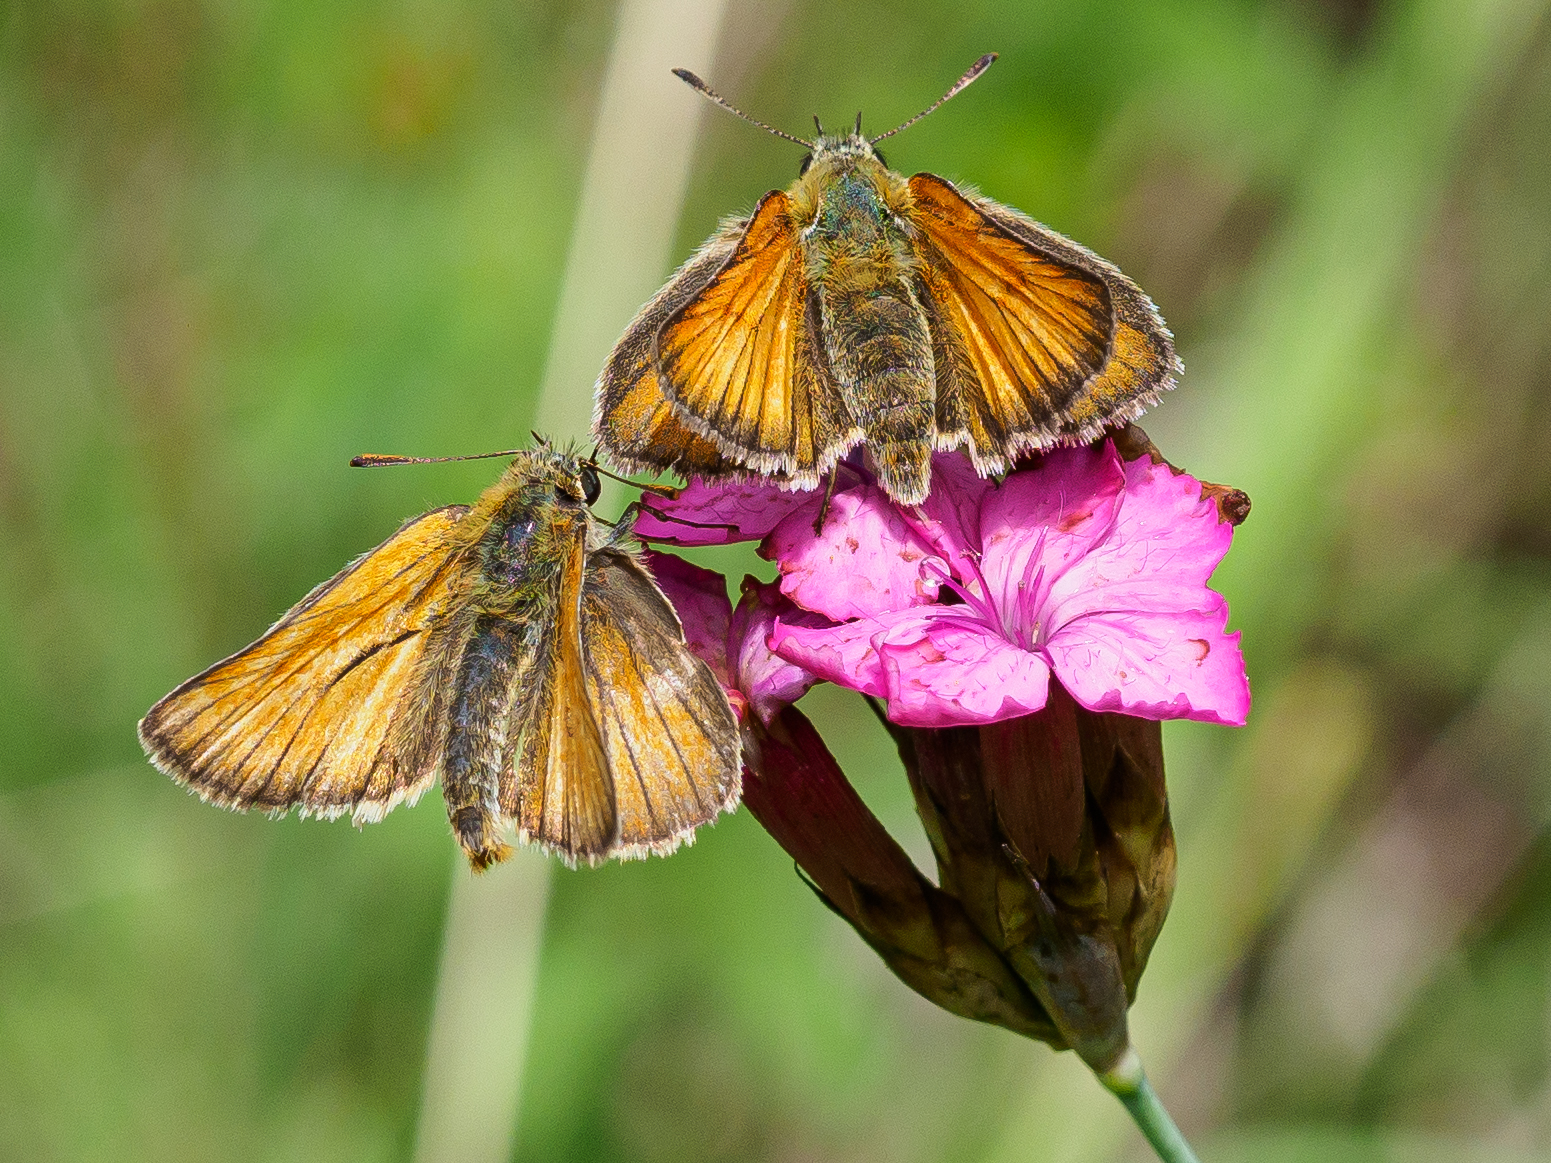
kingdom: Animalia
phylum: Arthropoda
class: Insecta
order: Lepidoptera
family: Hesperiidae
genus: Thymelicus
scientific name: Thymelicus sylvestris
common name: Small skipper
